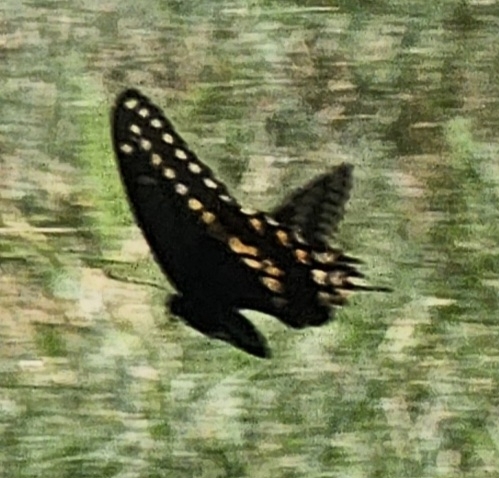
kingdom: Animalia
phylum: Arthropoda
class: Insecta
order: Lepidoptera
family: Papilionidae
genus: Papilio
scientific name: Papilio polyxenes
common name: Black swallowtail
